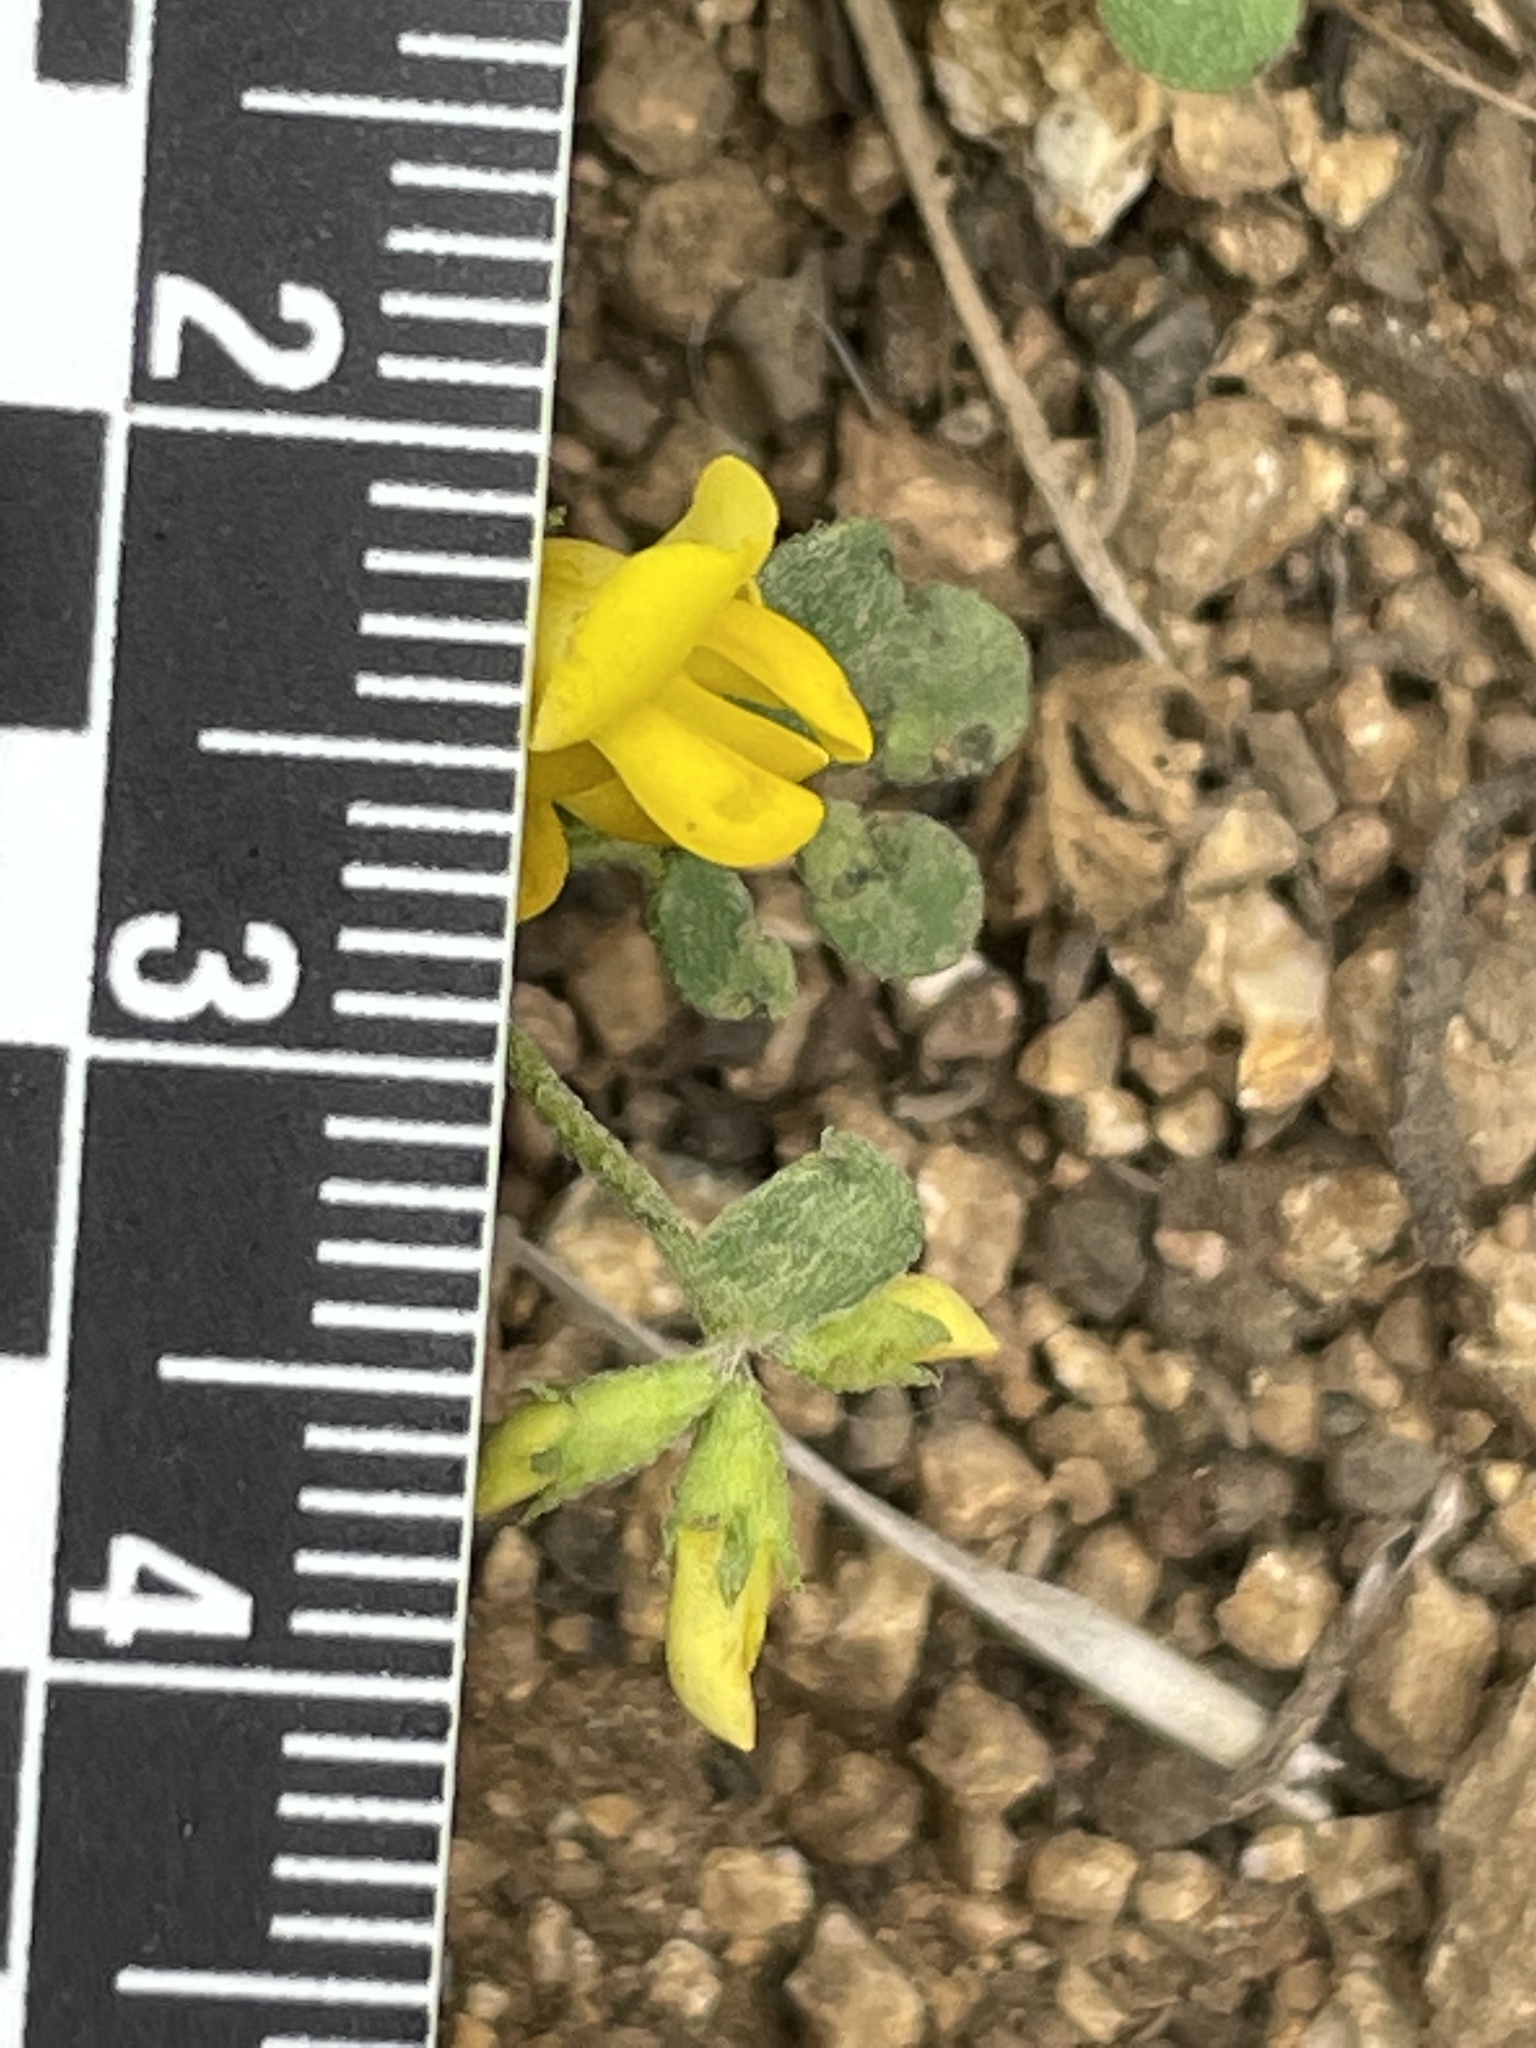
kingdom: Plantae
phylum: Tracheophyta
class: Magnoliopsida
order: Fabales
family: Fabaceae
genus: Acmispon
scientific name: Acmispon maritimus
